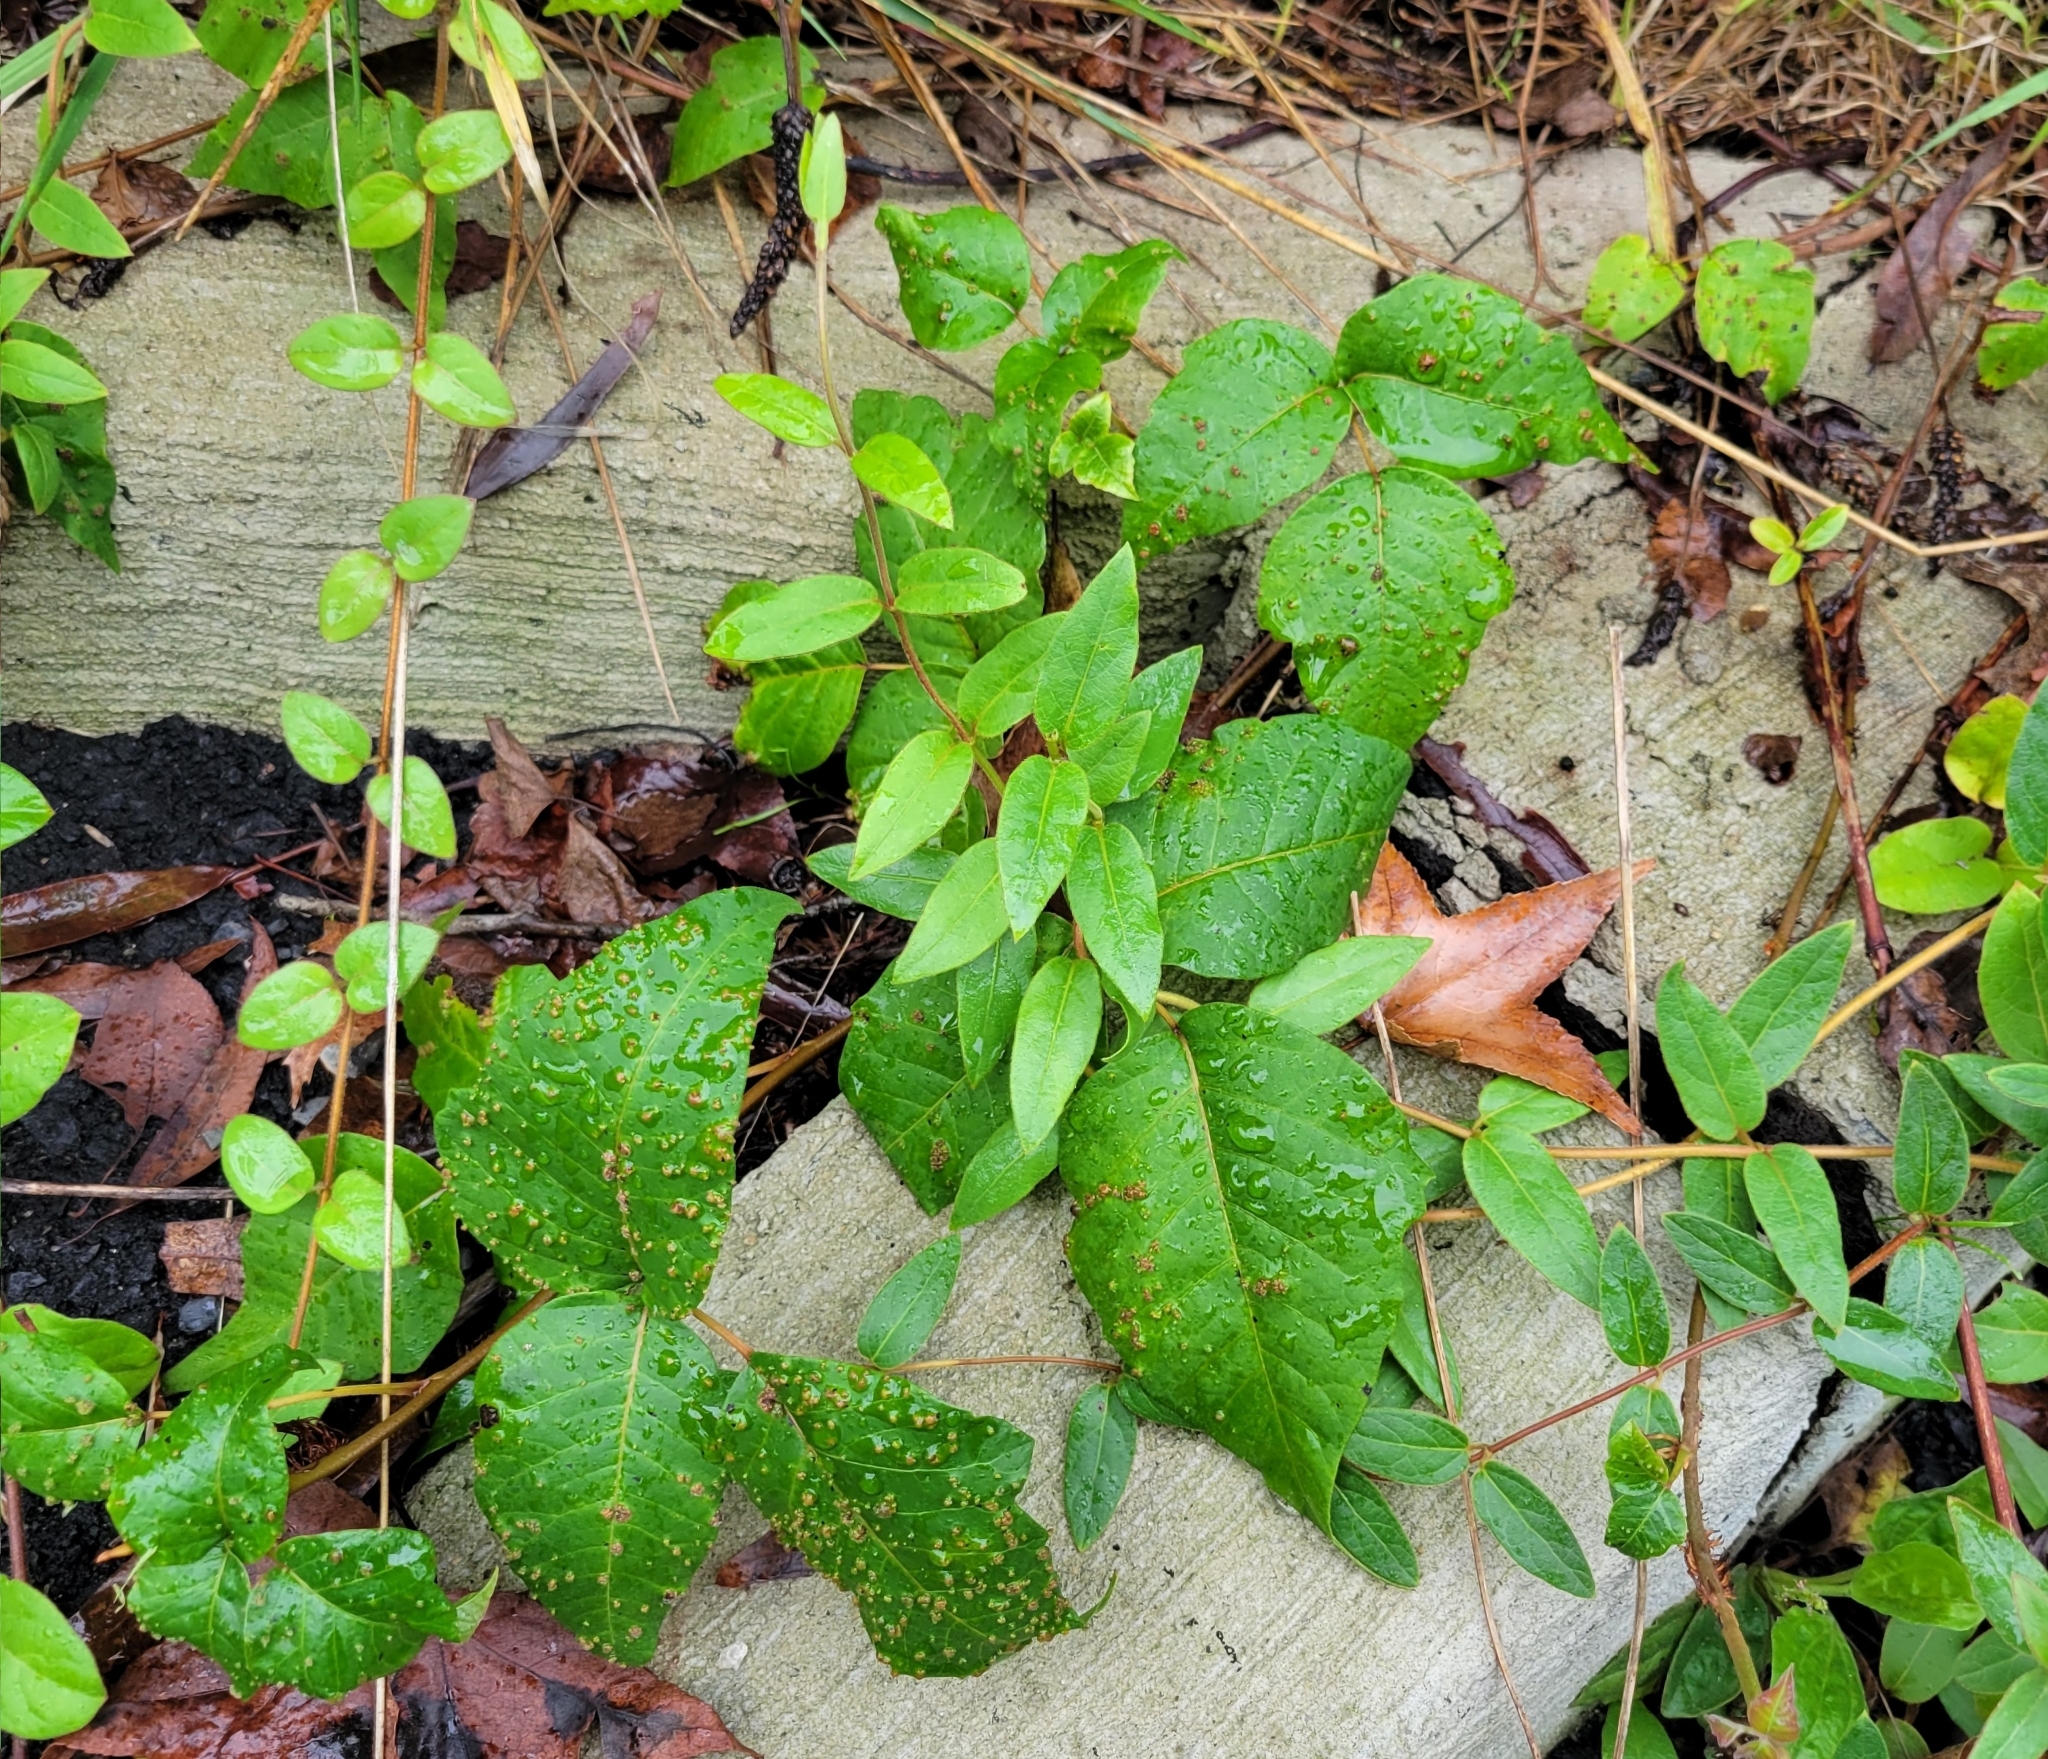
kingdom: Plantae
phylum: Tracheophyta
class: Magnoliopsida
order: Sapindales
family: Anacardiaceae
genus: Toxicodendron
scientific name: Toxicodendron radicans
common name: Poison ivy
